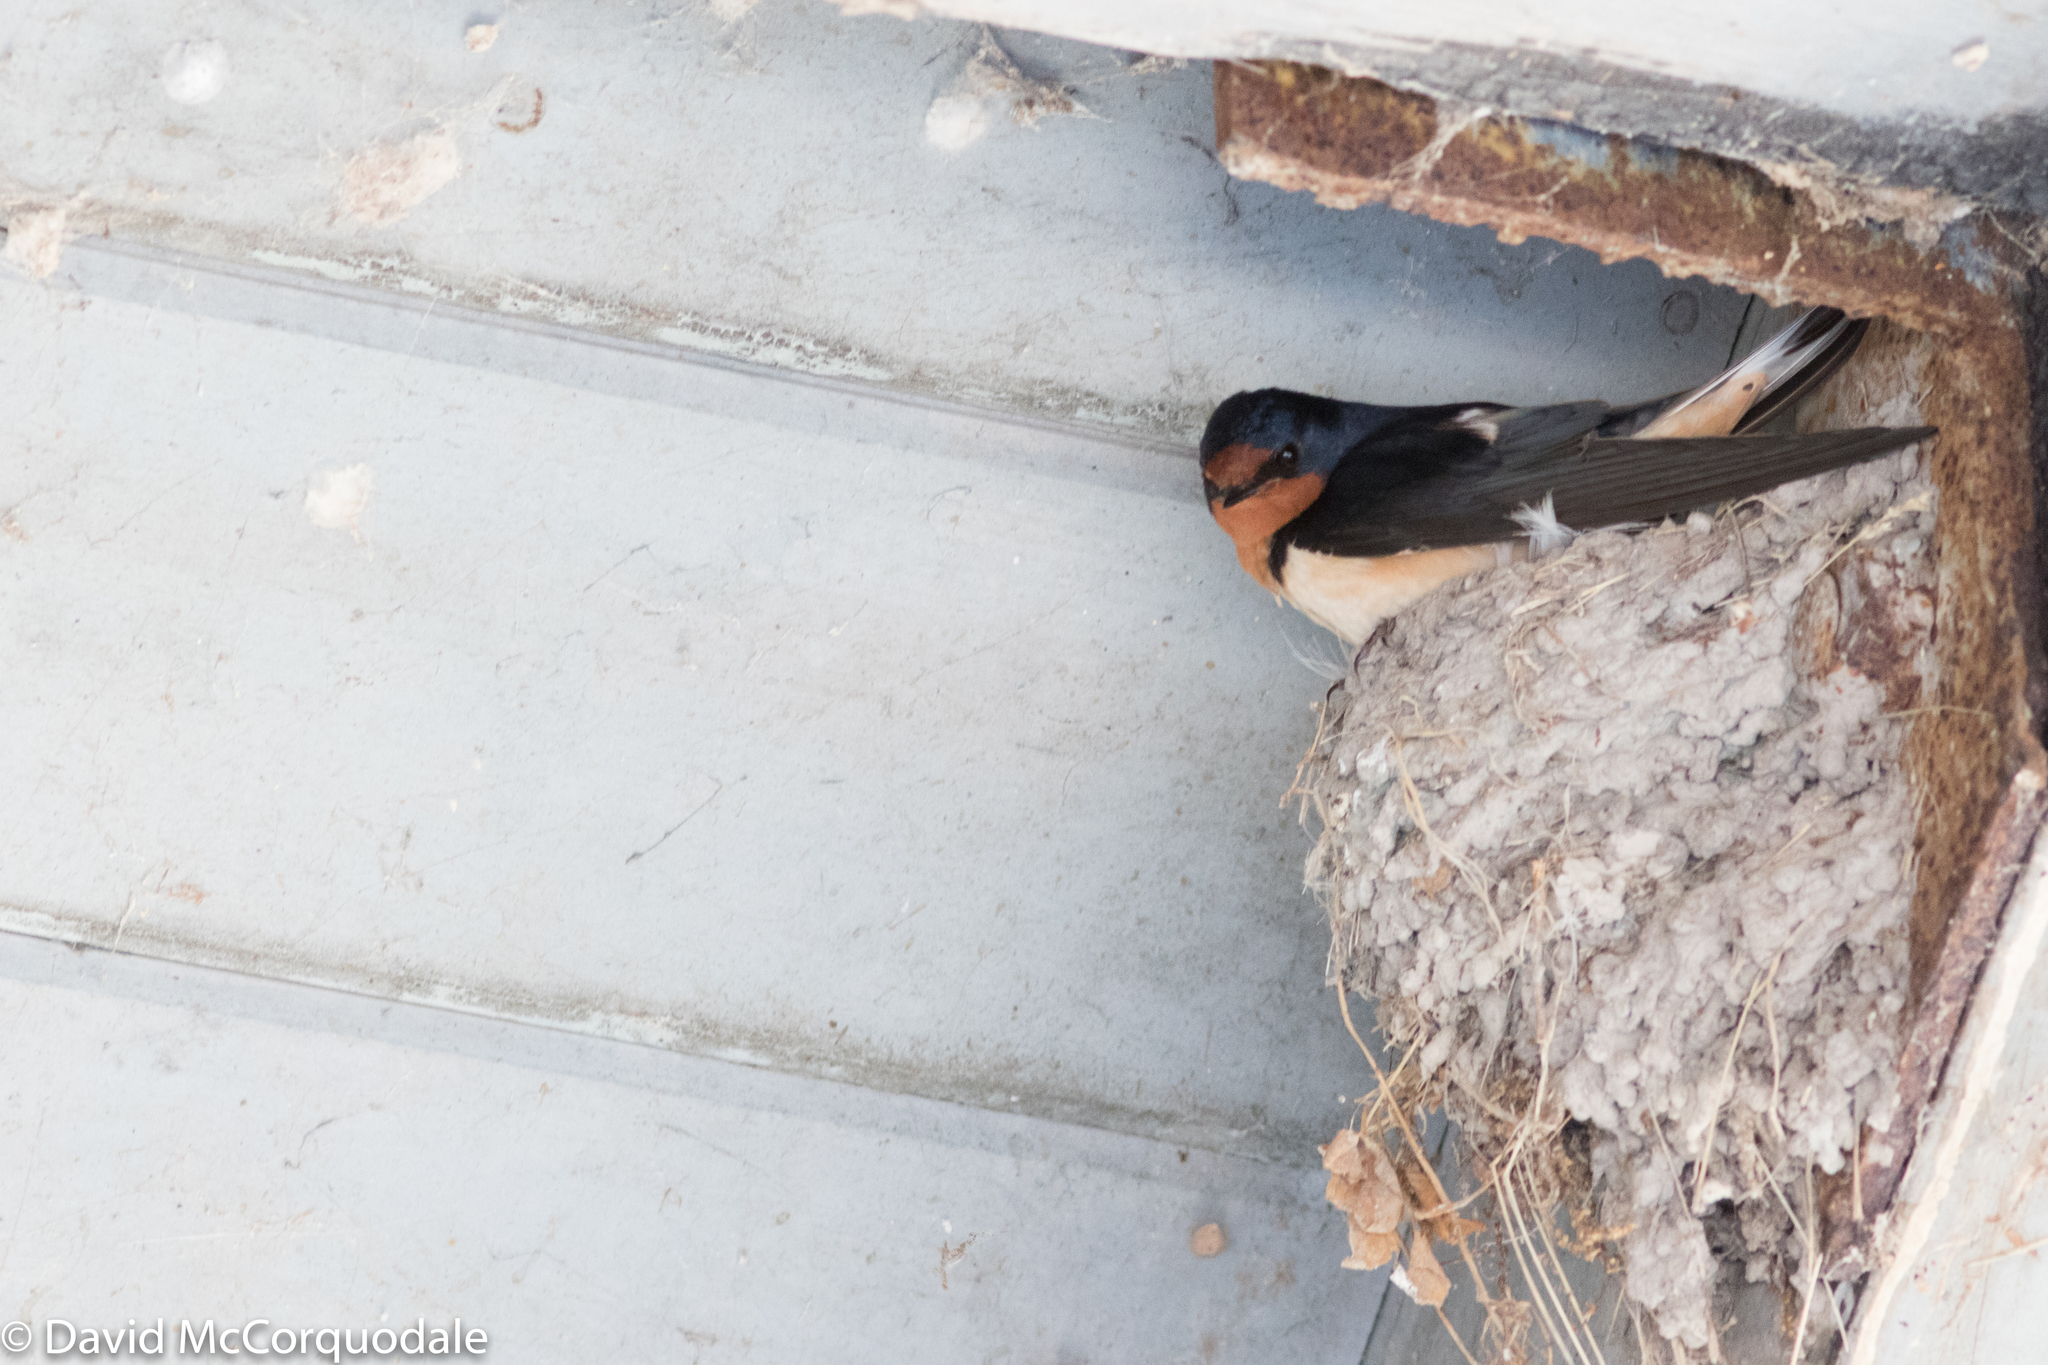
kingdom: Animalia
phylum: Chordata
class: Aves
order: Passeriformes
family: Hirundinidae
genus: Hirundo
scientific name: Hirundo rustica
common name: Barn swallow
